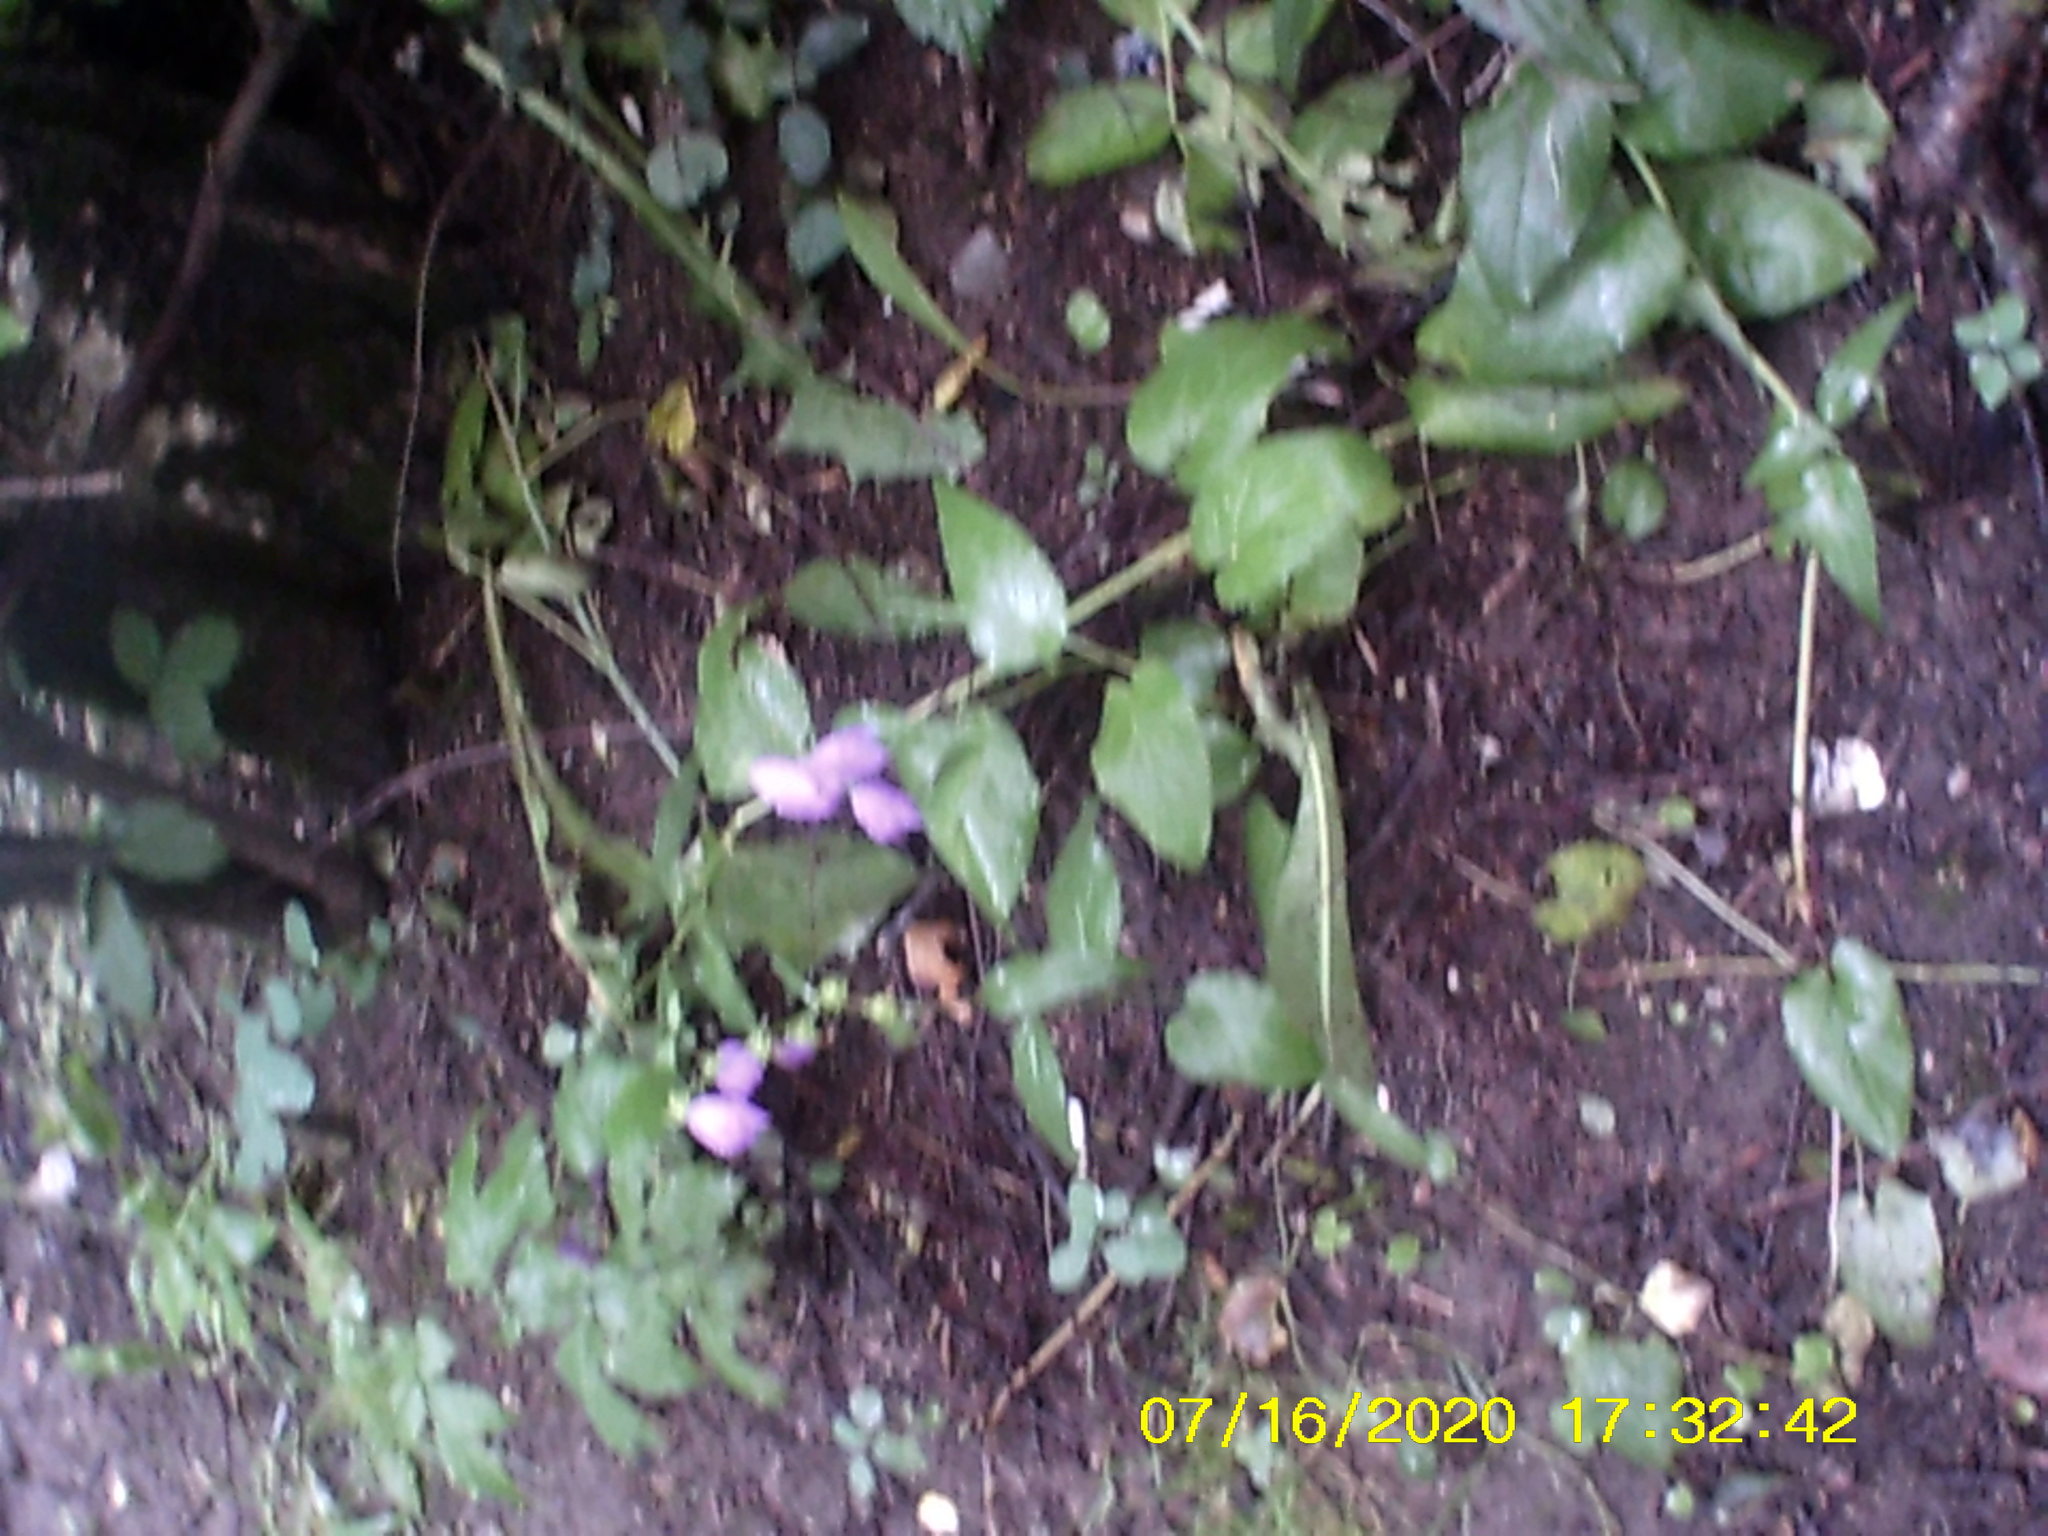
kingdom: Plantae
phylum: Tracheophyta
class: Magnoliopsida
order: Asterales
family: Campanulaceae
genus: Campanula
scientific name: Campanula rapunculoides
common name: Creeping bellflower
